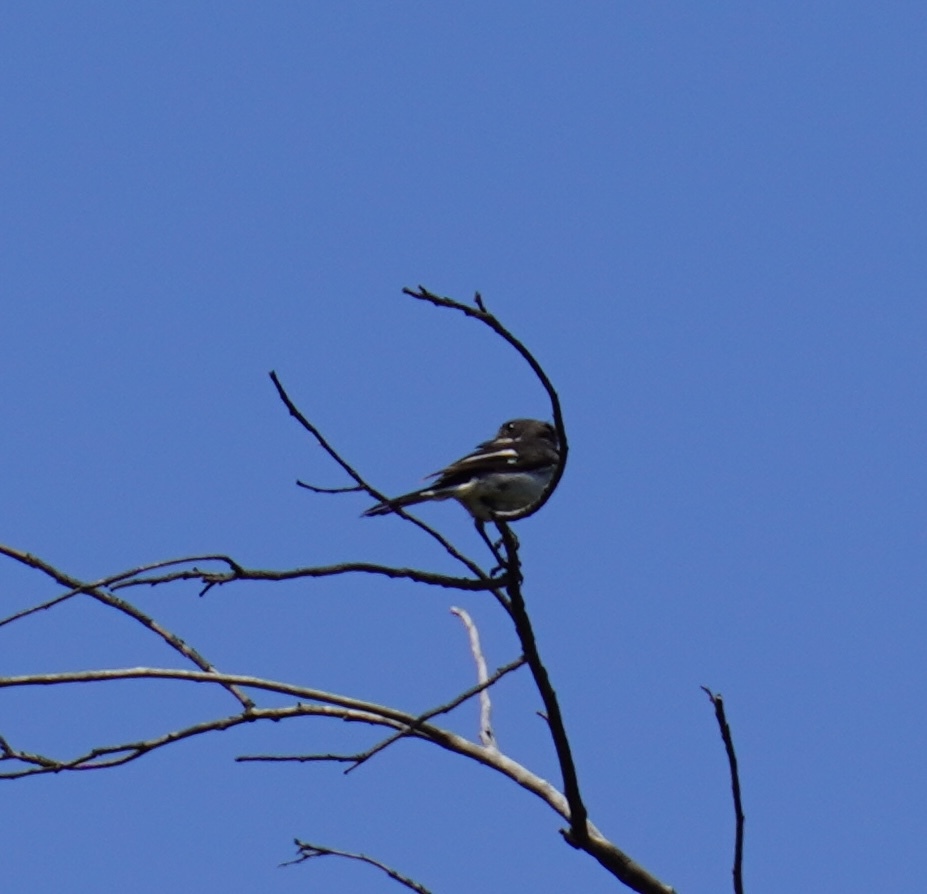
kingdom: Animalia
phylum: Chordata
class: Aves
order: Passeriformes
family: Muscicapidae
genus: Sigelus
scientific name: Sigelus silens
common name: Fiscal flycatcher
